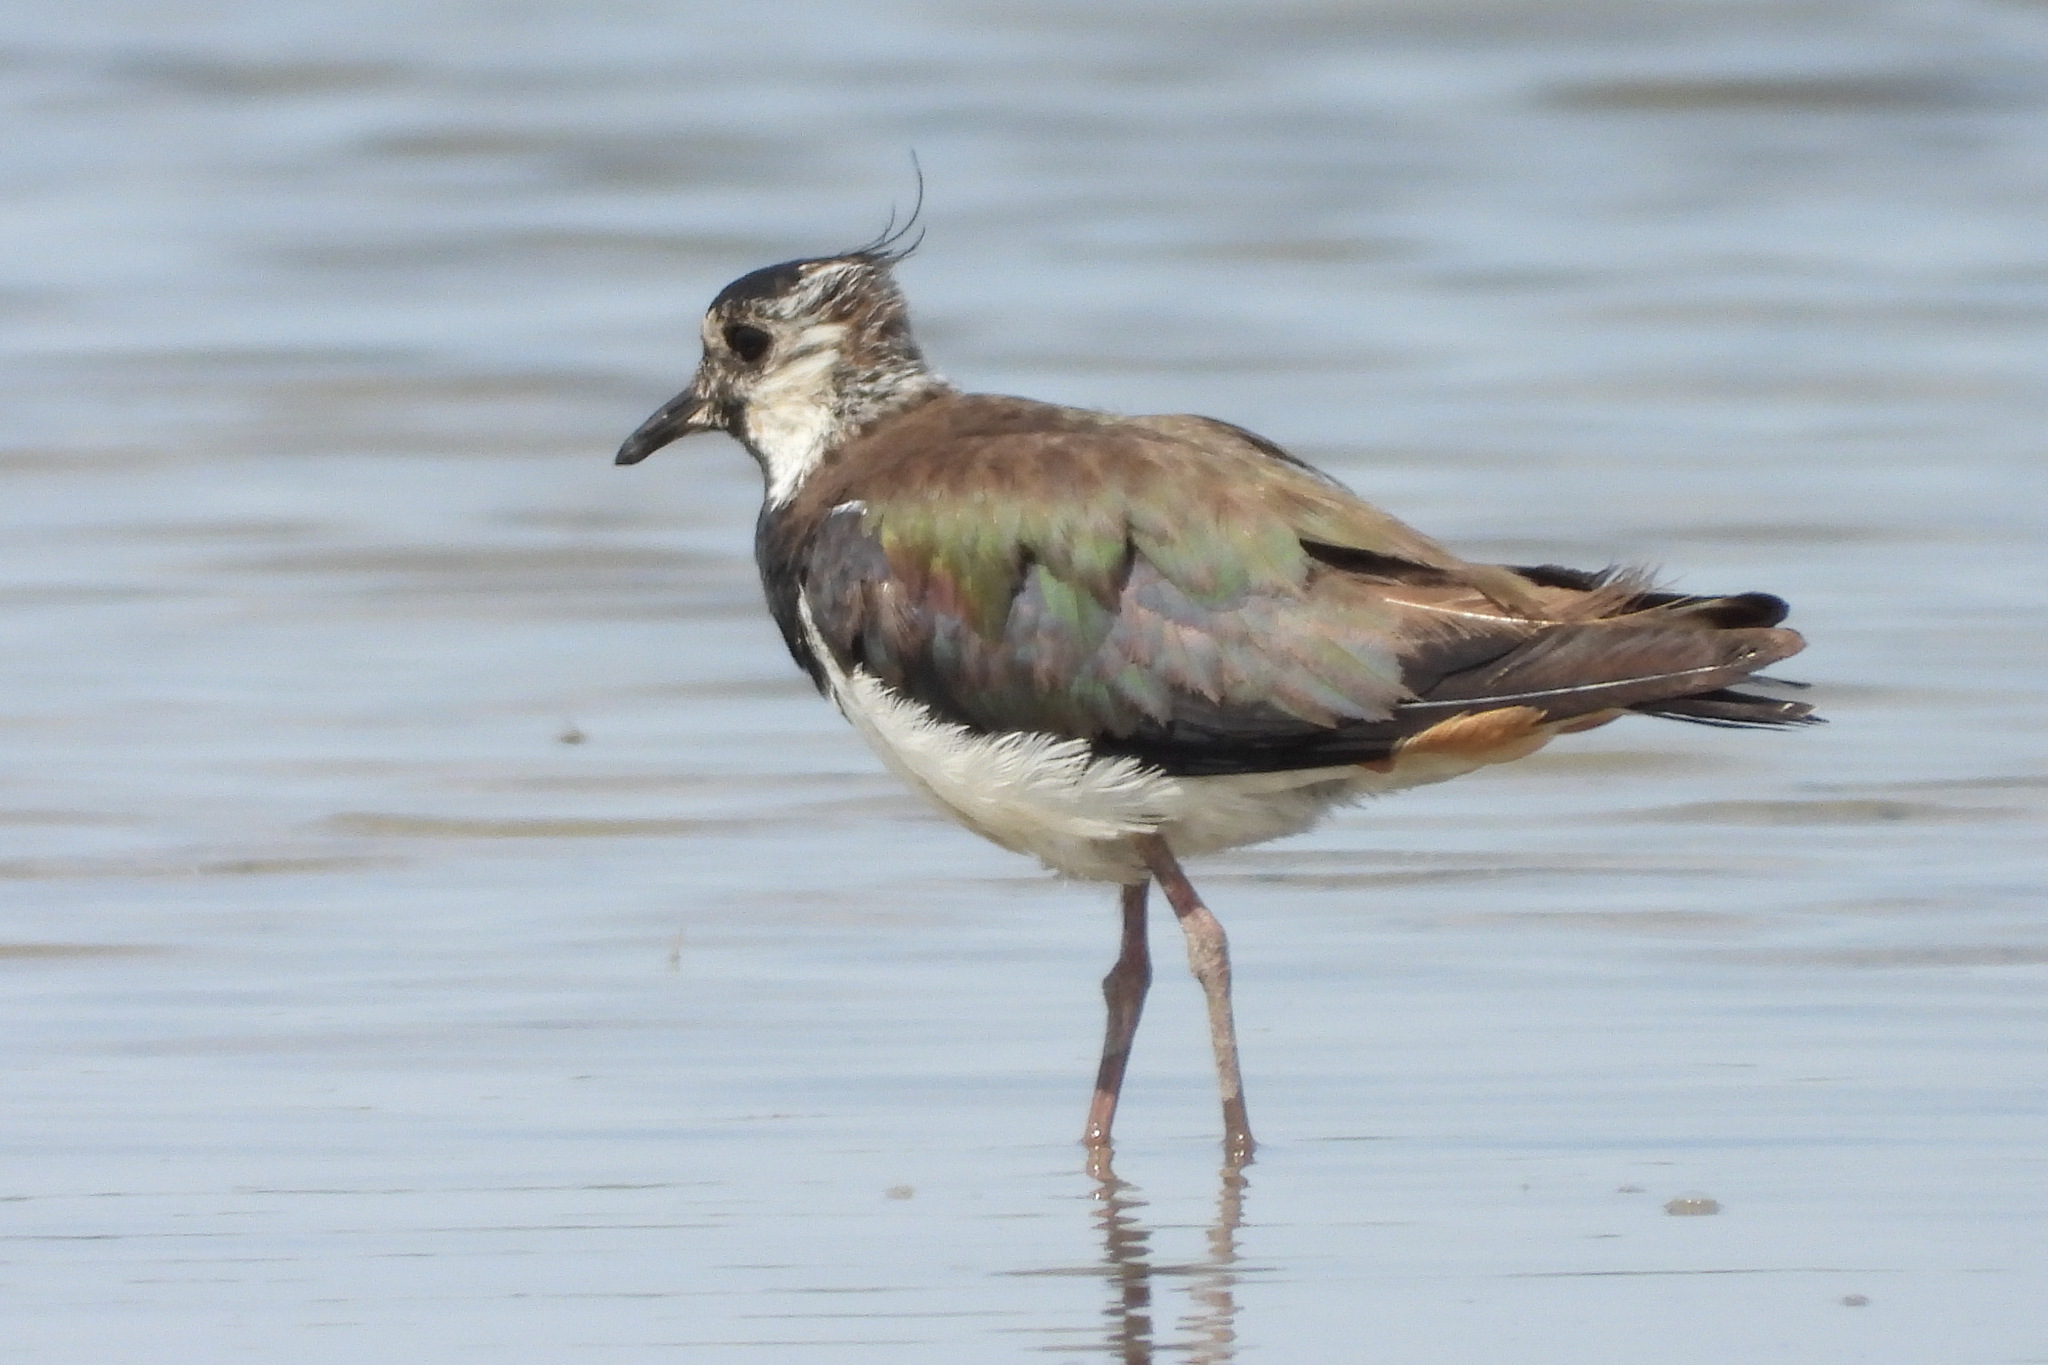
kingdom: Animalia
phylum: Chordata
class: Aves
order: Charadriiformes
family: Charadriidae
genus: Vanellus
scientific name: Vanellus vanellus
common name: Northern lapwing
